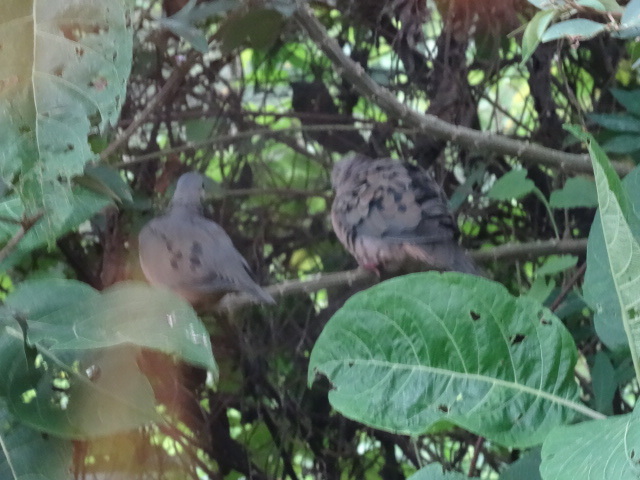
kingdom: Animalia
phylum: Chordata
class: Aves
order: Columbiformes
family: Columbidae
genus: Zenaida
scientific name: Zenaida auriculata
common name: Eared dove
